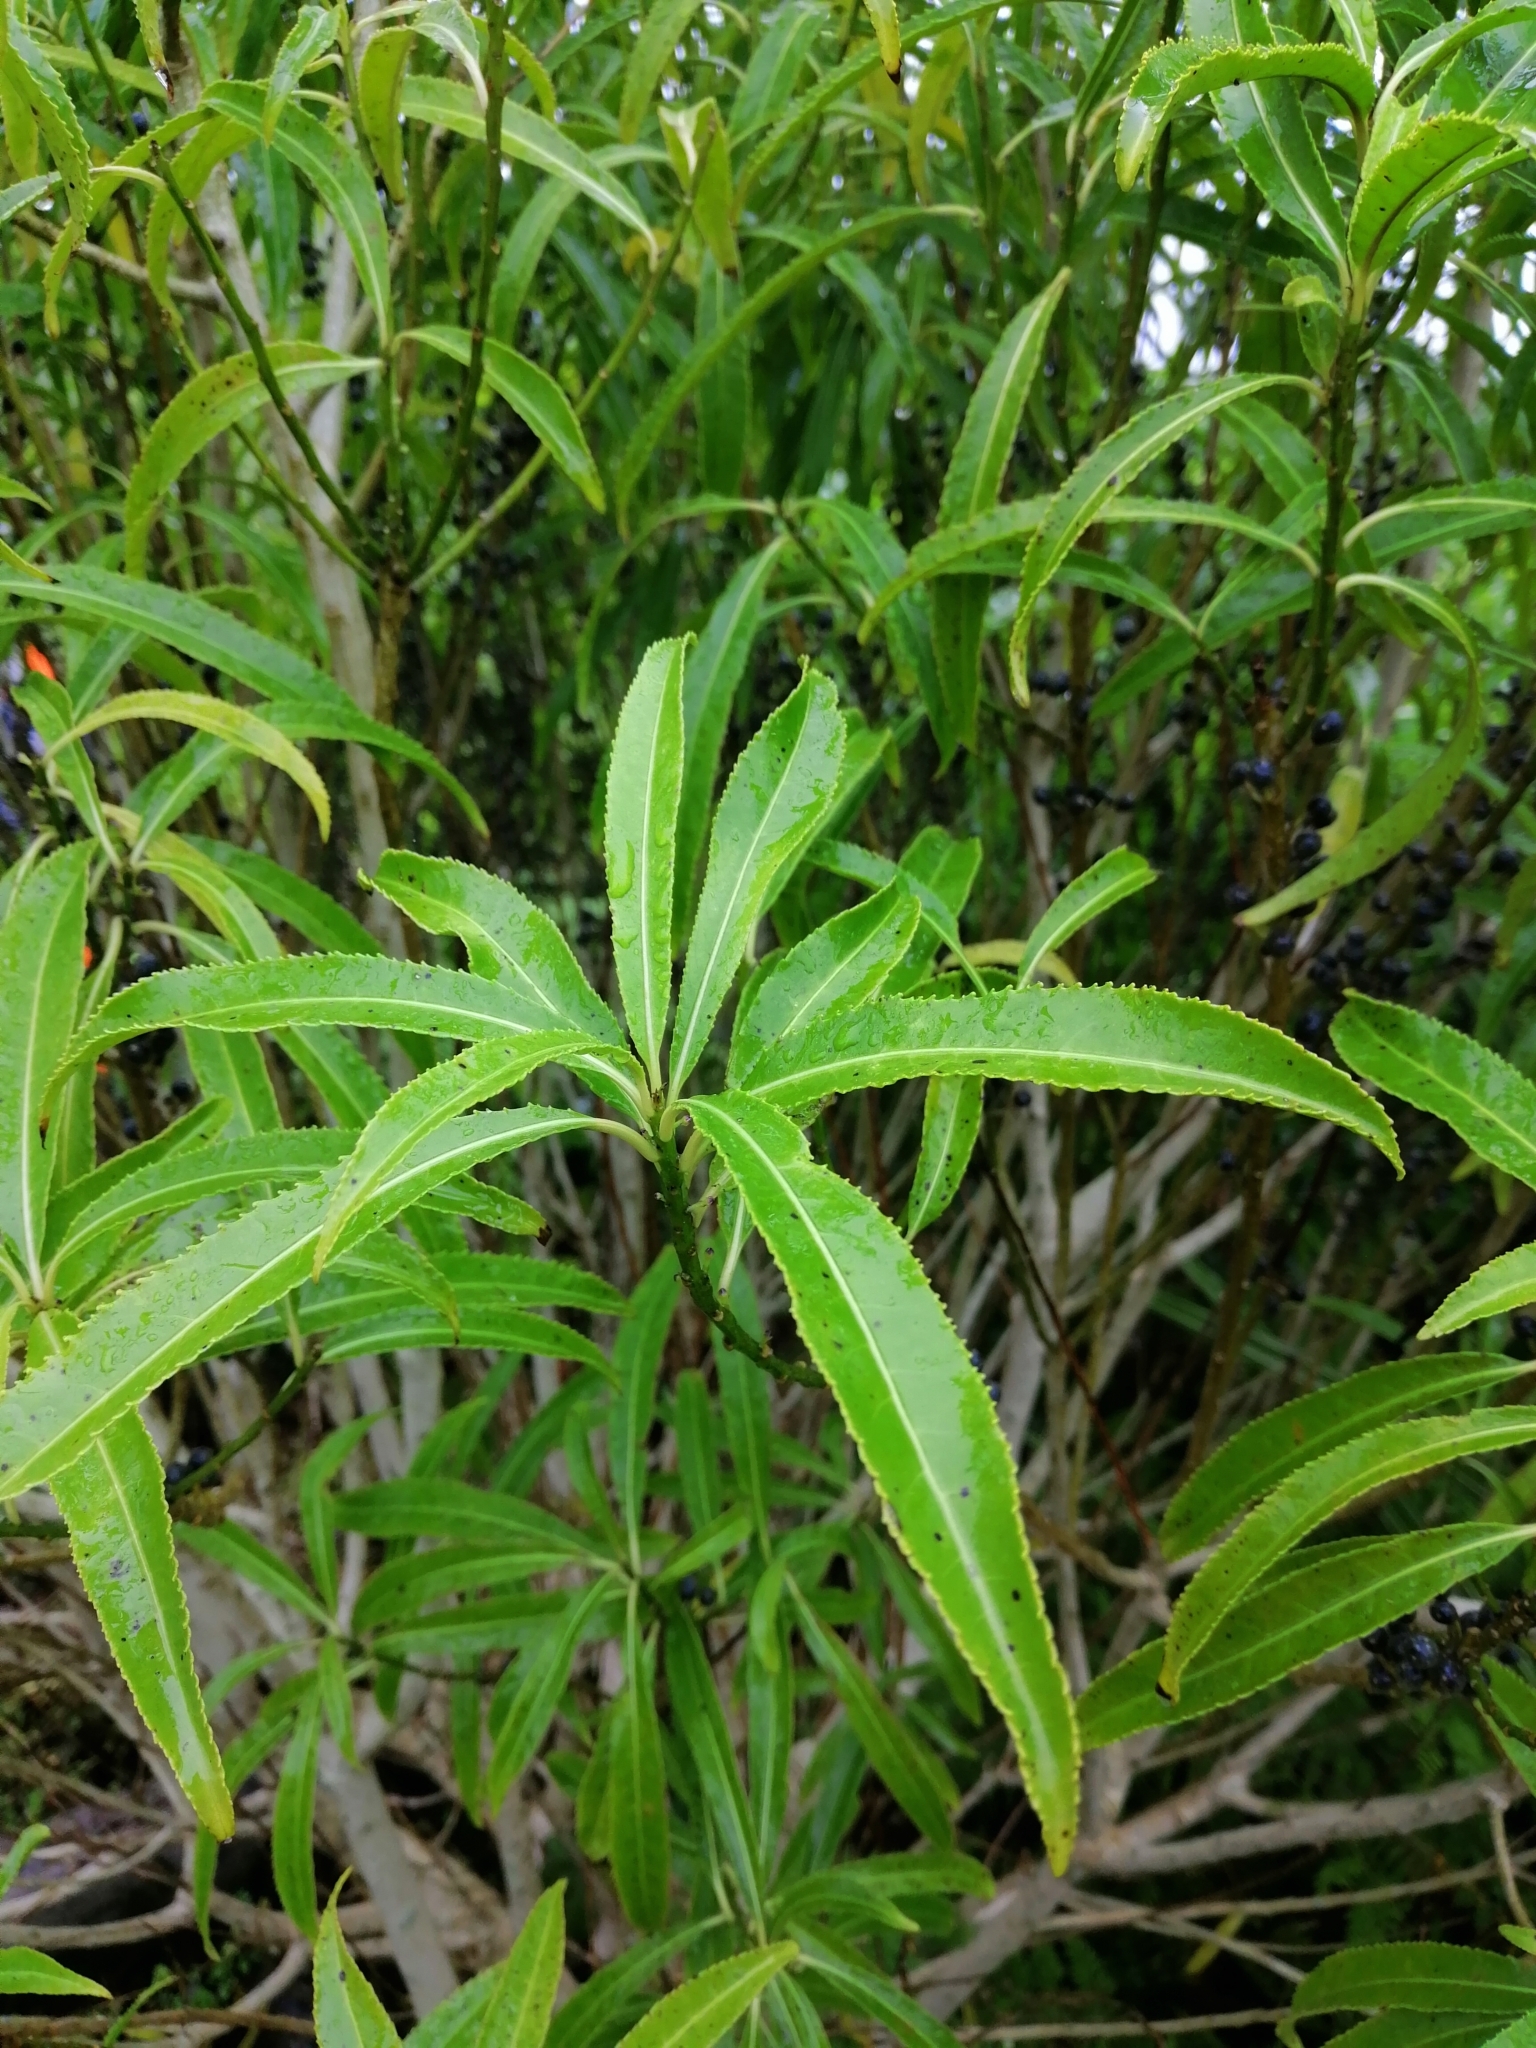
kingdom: Plantae
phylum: Tracheophyta
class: Magnoliopsida
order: Malpighiales
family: Violaceae
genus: Melicytus
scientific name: Melicytus lanceolatus
